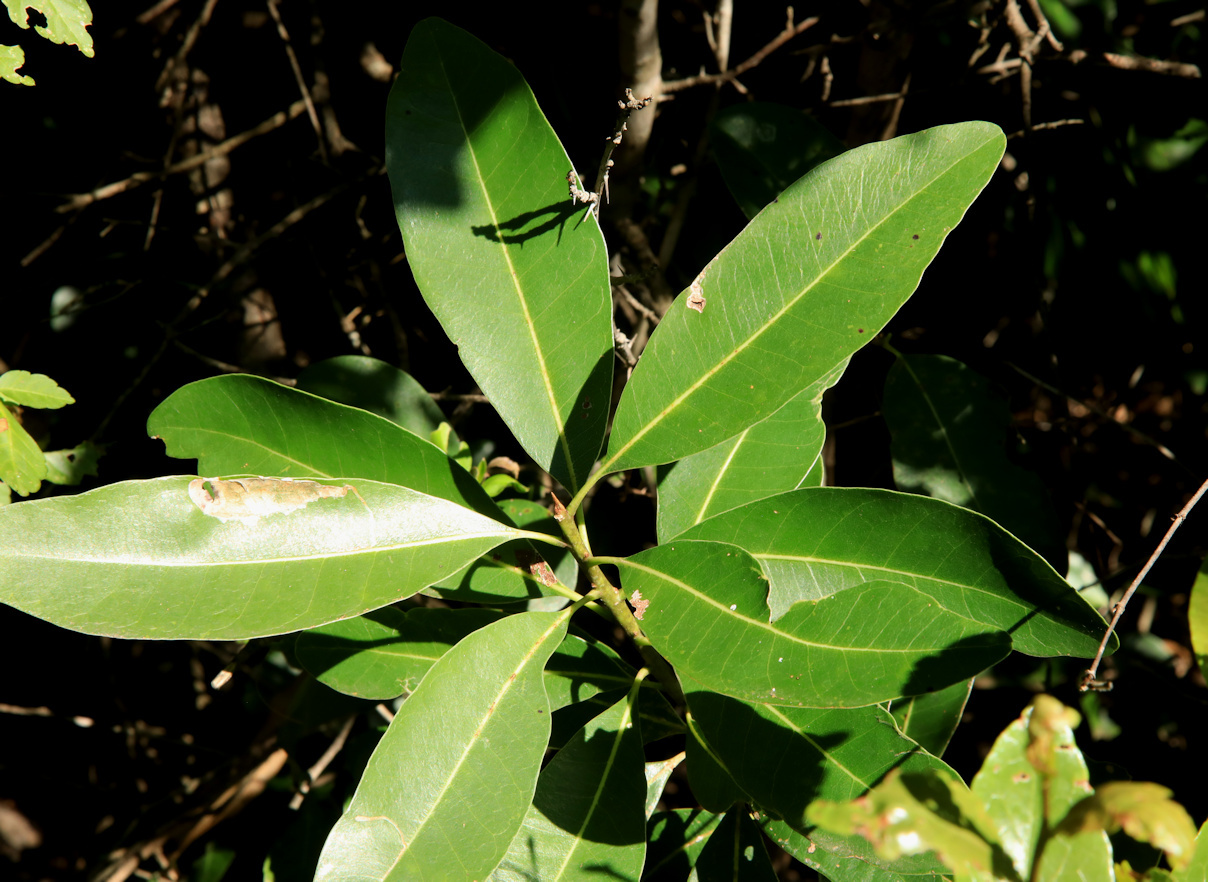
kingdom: Plantae
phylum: Tracheophyta
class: Magnoliopsida
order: Ericales
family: Sapotaceae
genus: Sideroxylon
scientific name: Sideroxylon inerme
